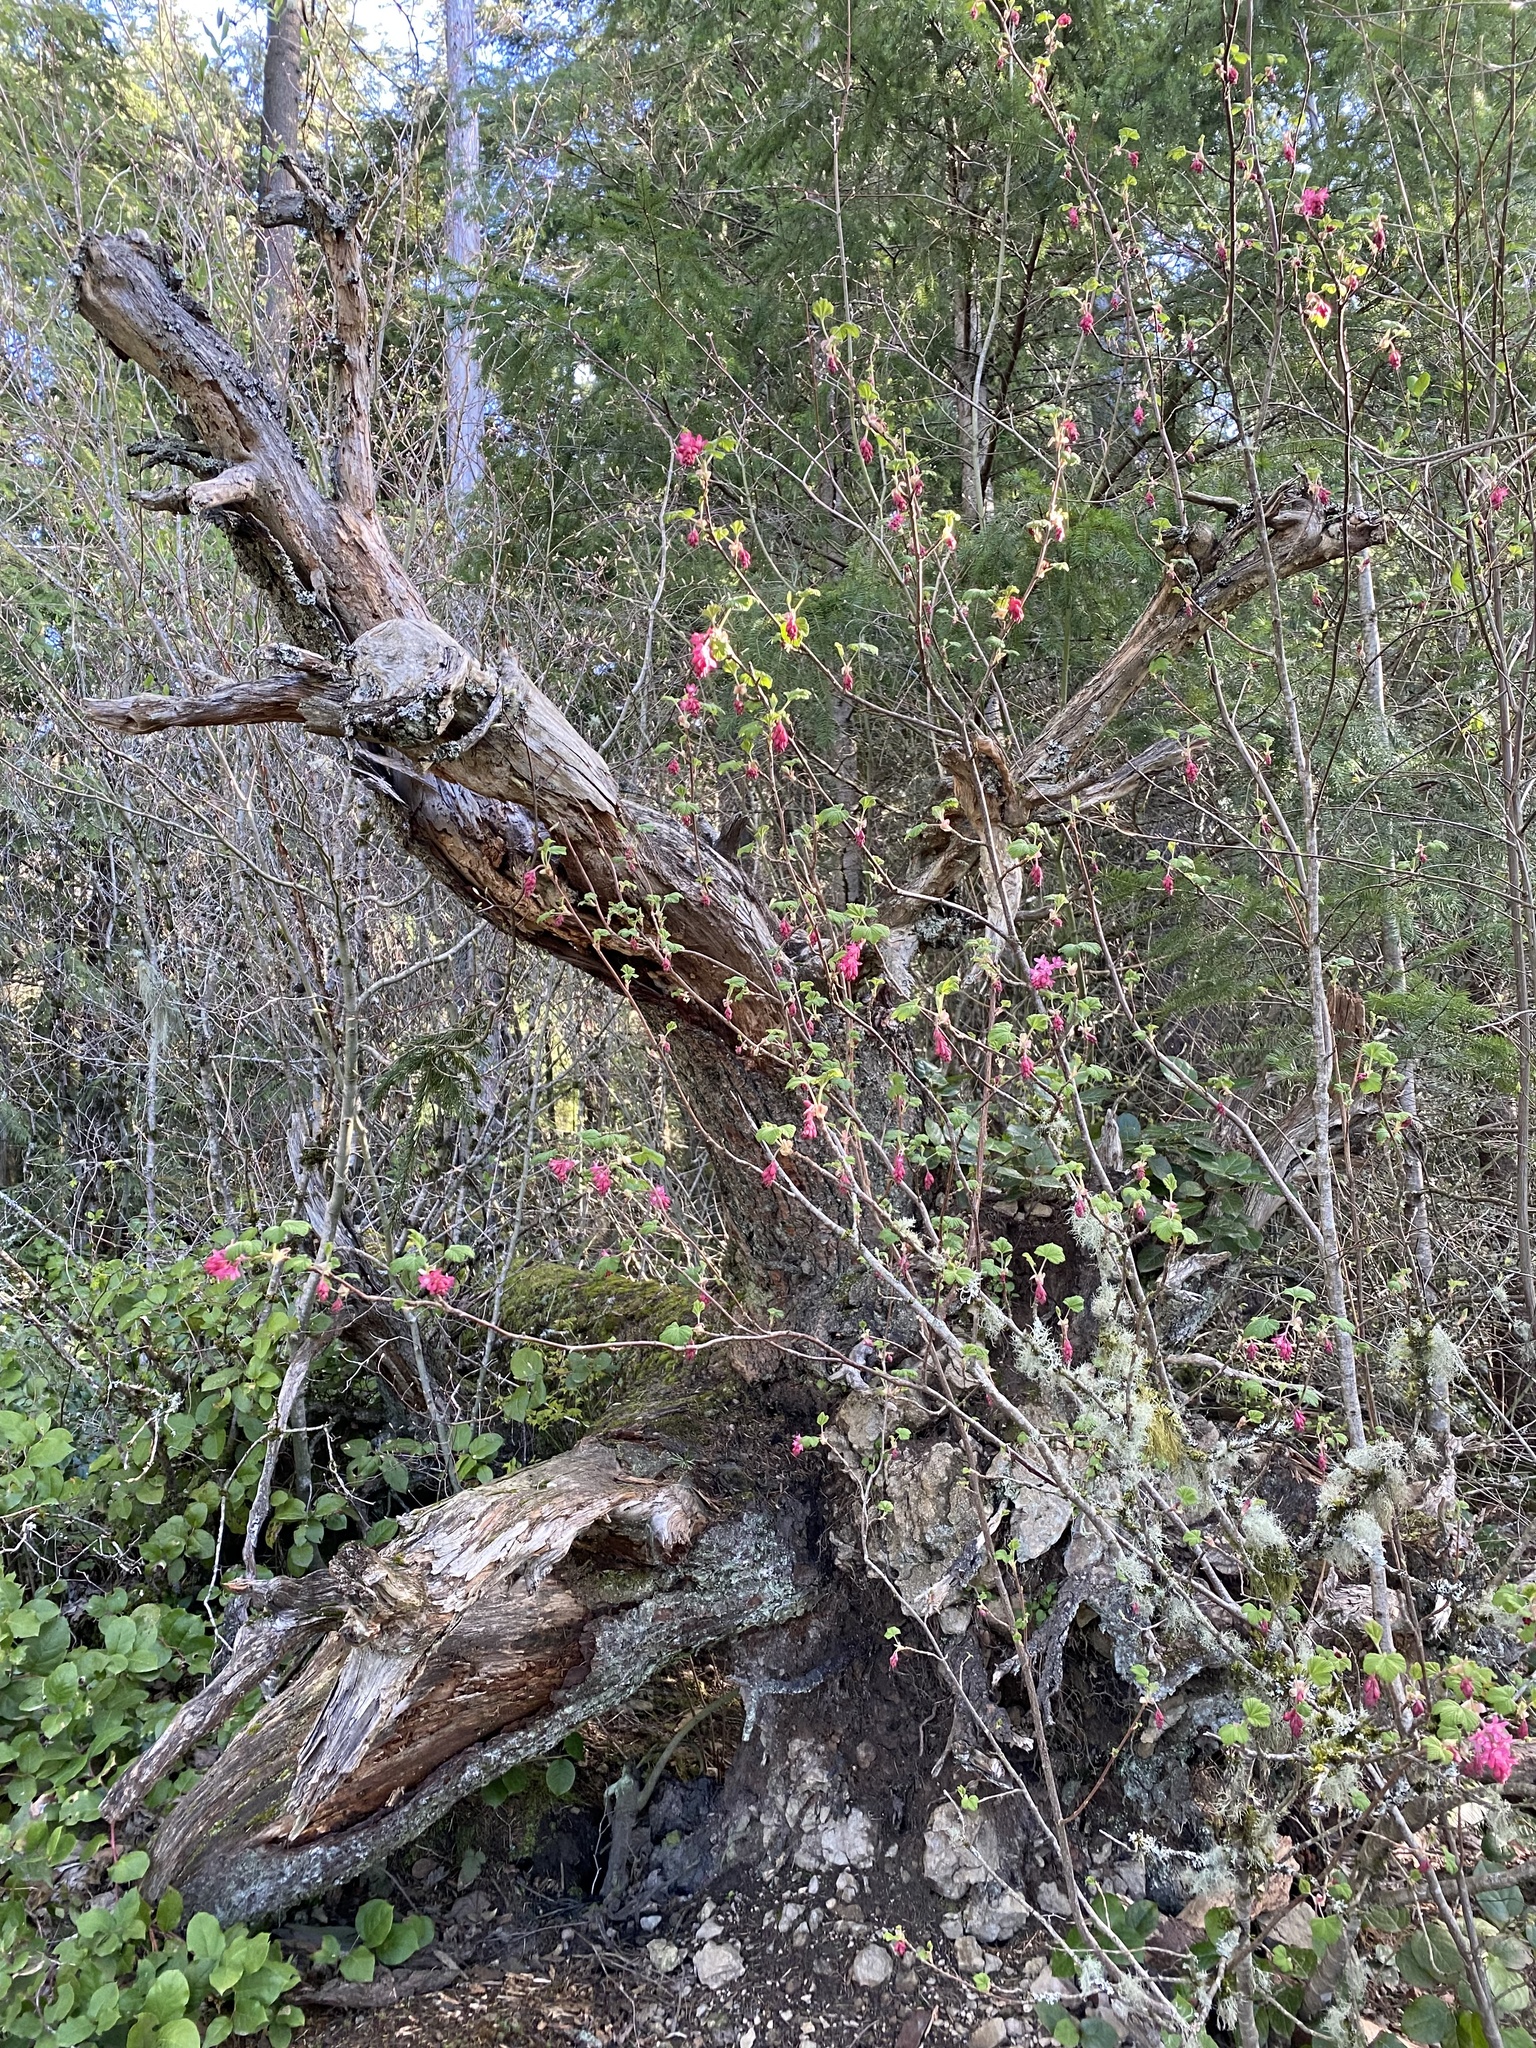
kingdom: Plantae
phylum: Tracheophyta
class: Magnoliopsida
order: Saxifragales
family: Grossulariaceae
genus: Ribes
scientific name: Ribes sanguineum
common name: Flowering currant
